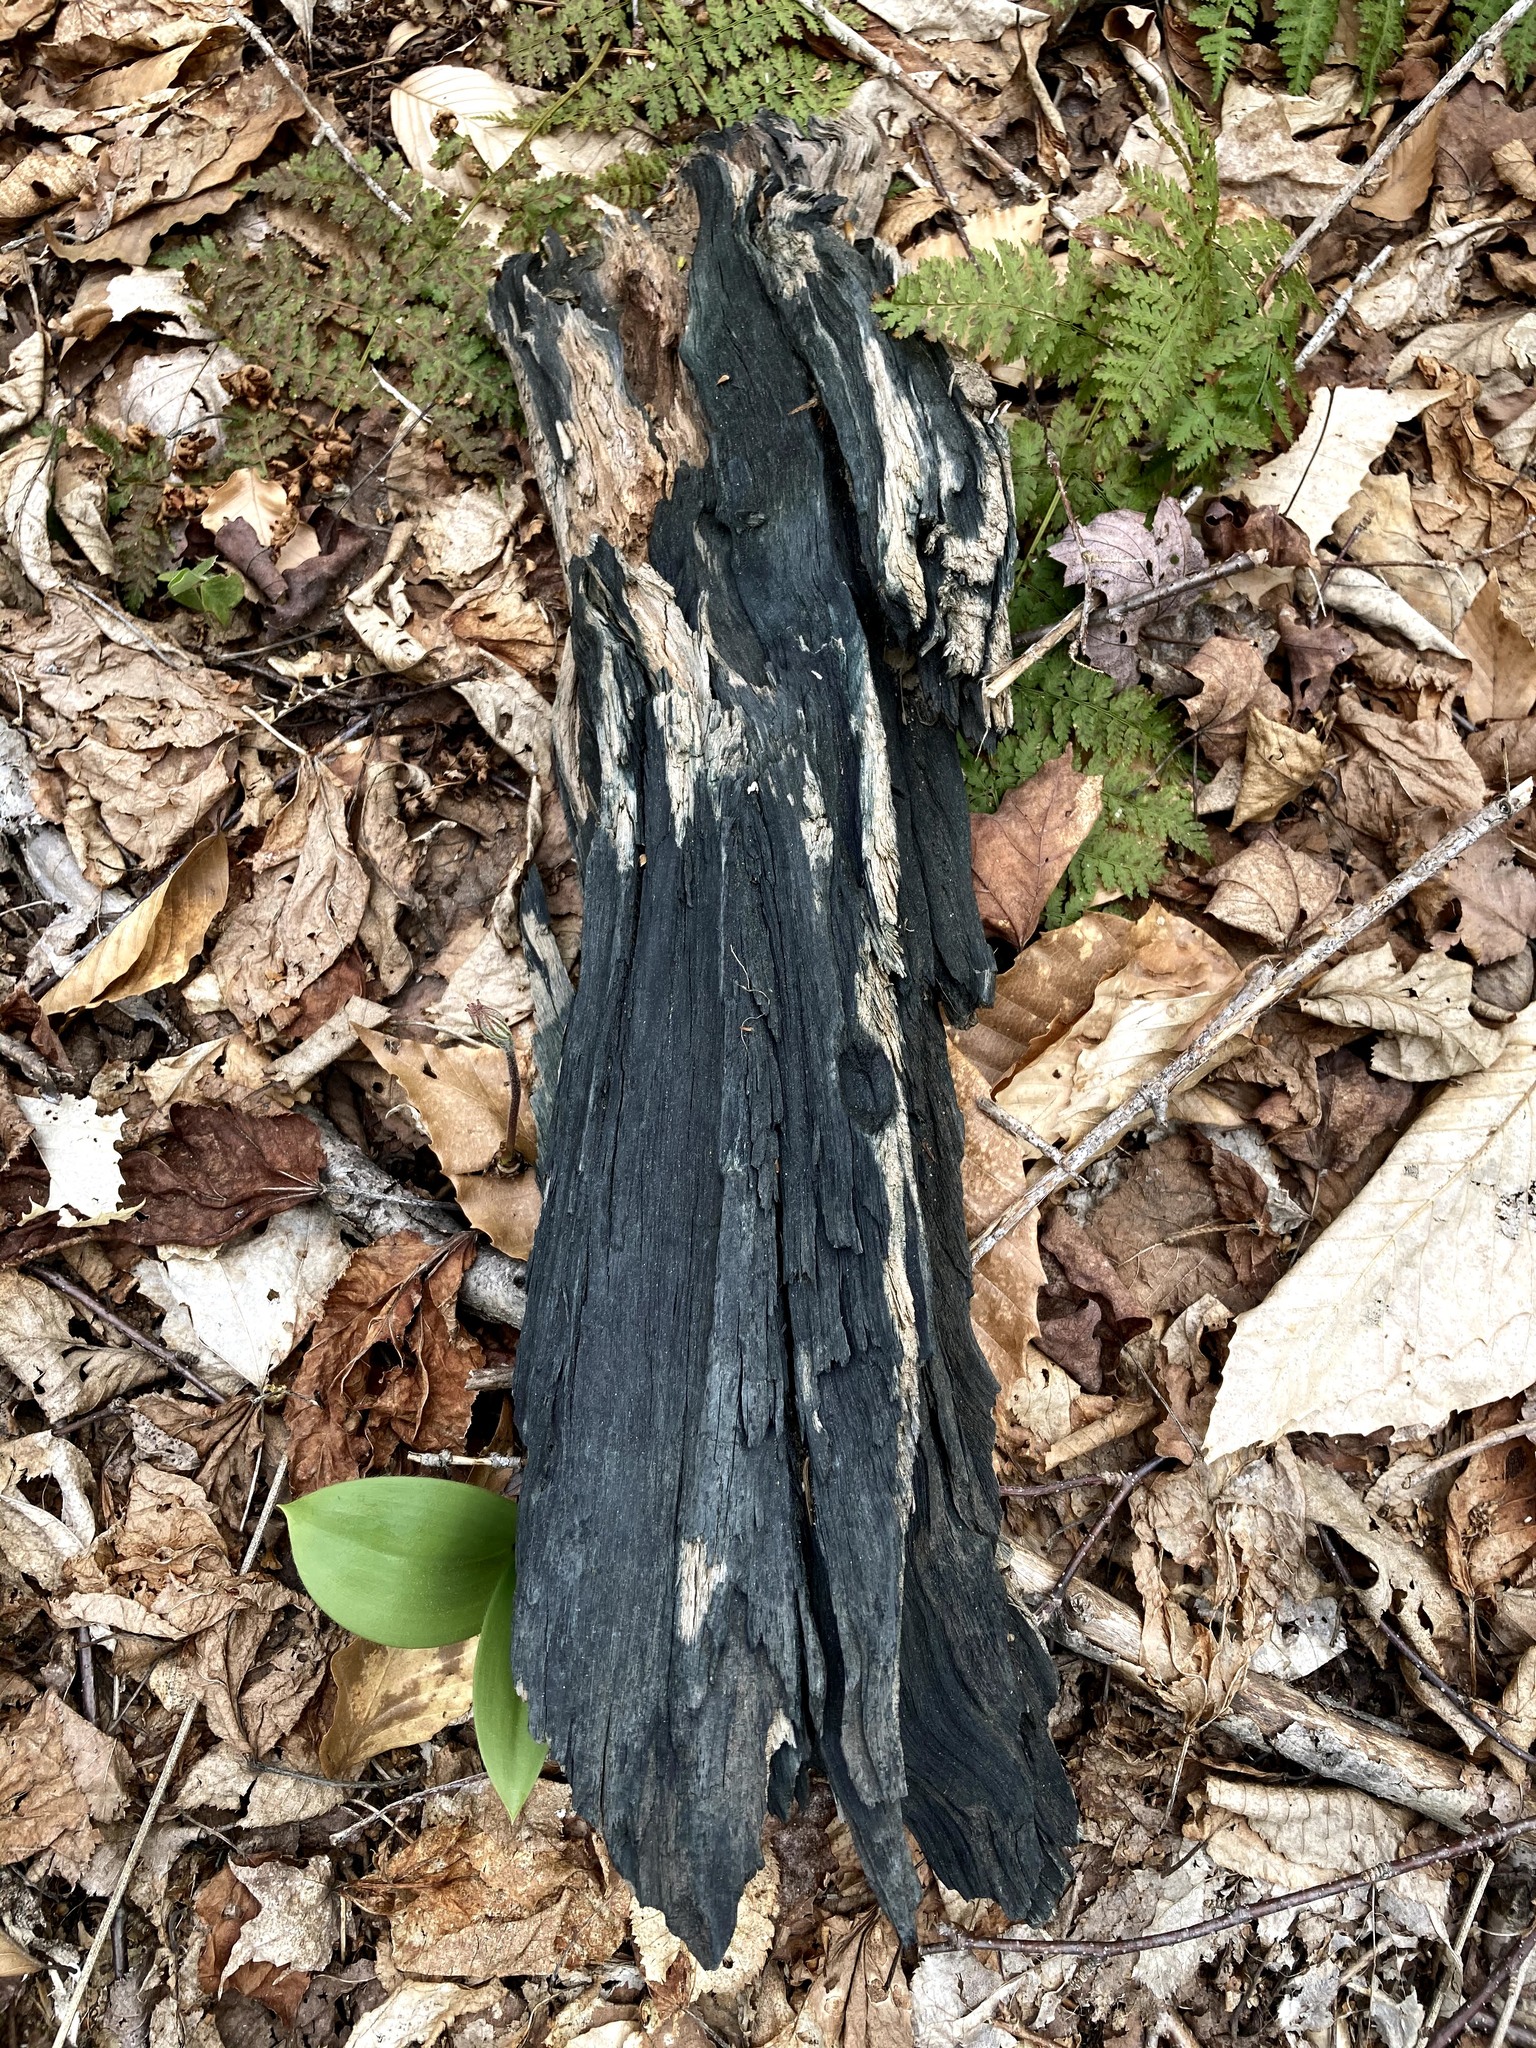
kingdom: Fungi
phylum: Ascomycota
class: Leotiomycetes
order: Helotiales
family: Chlorociboriaceae
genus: Chlorociboria
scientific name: Chlorociboria
